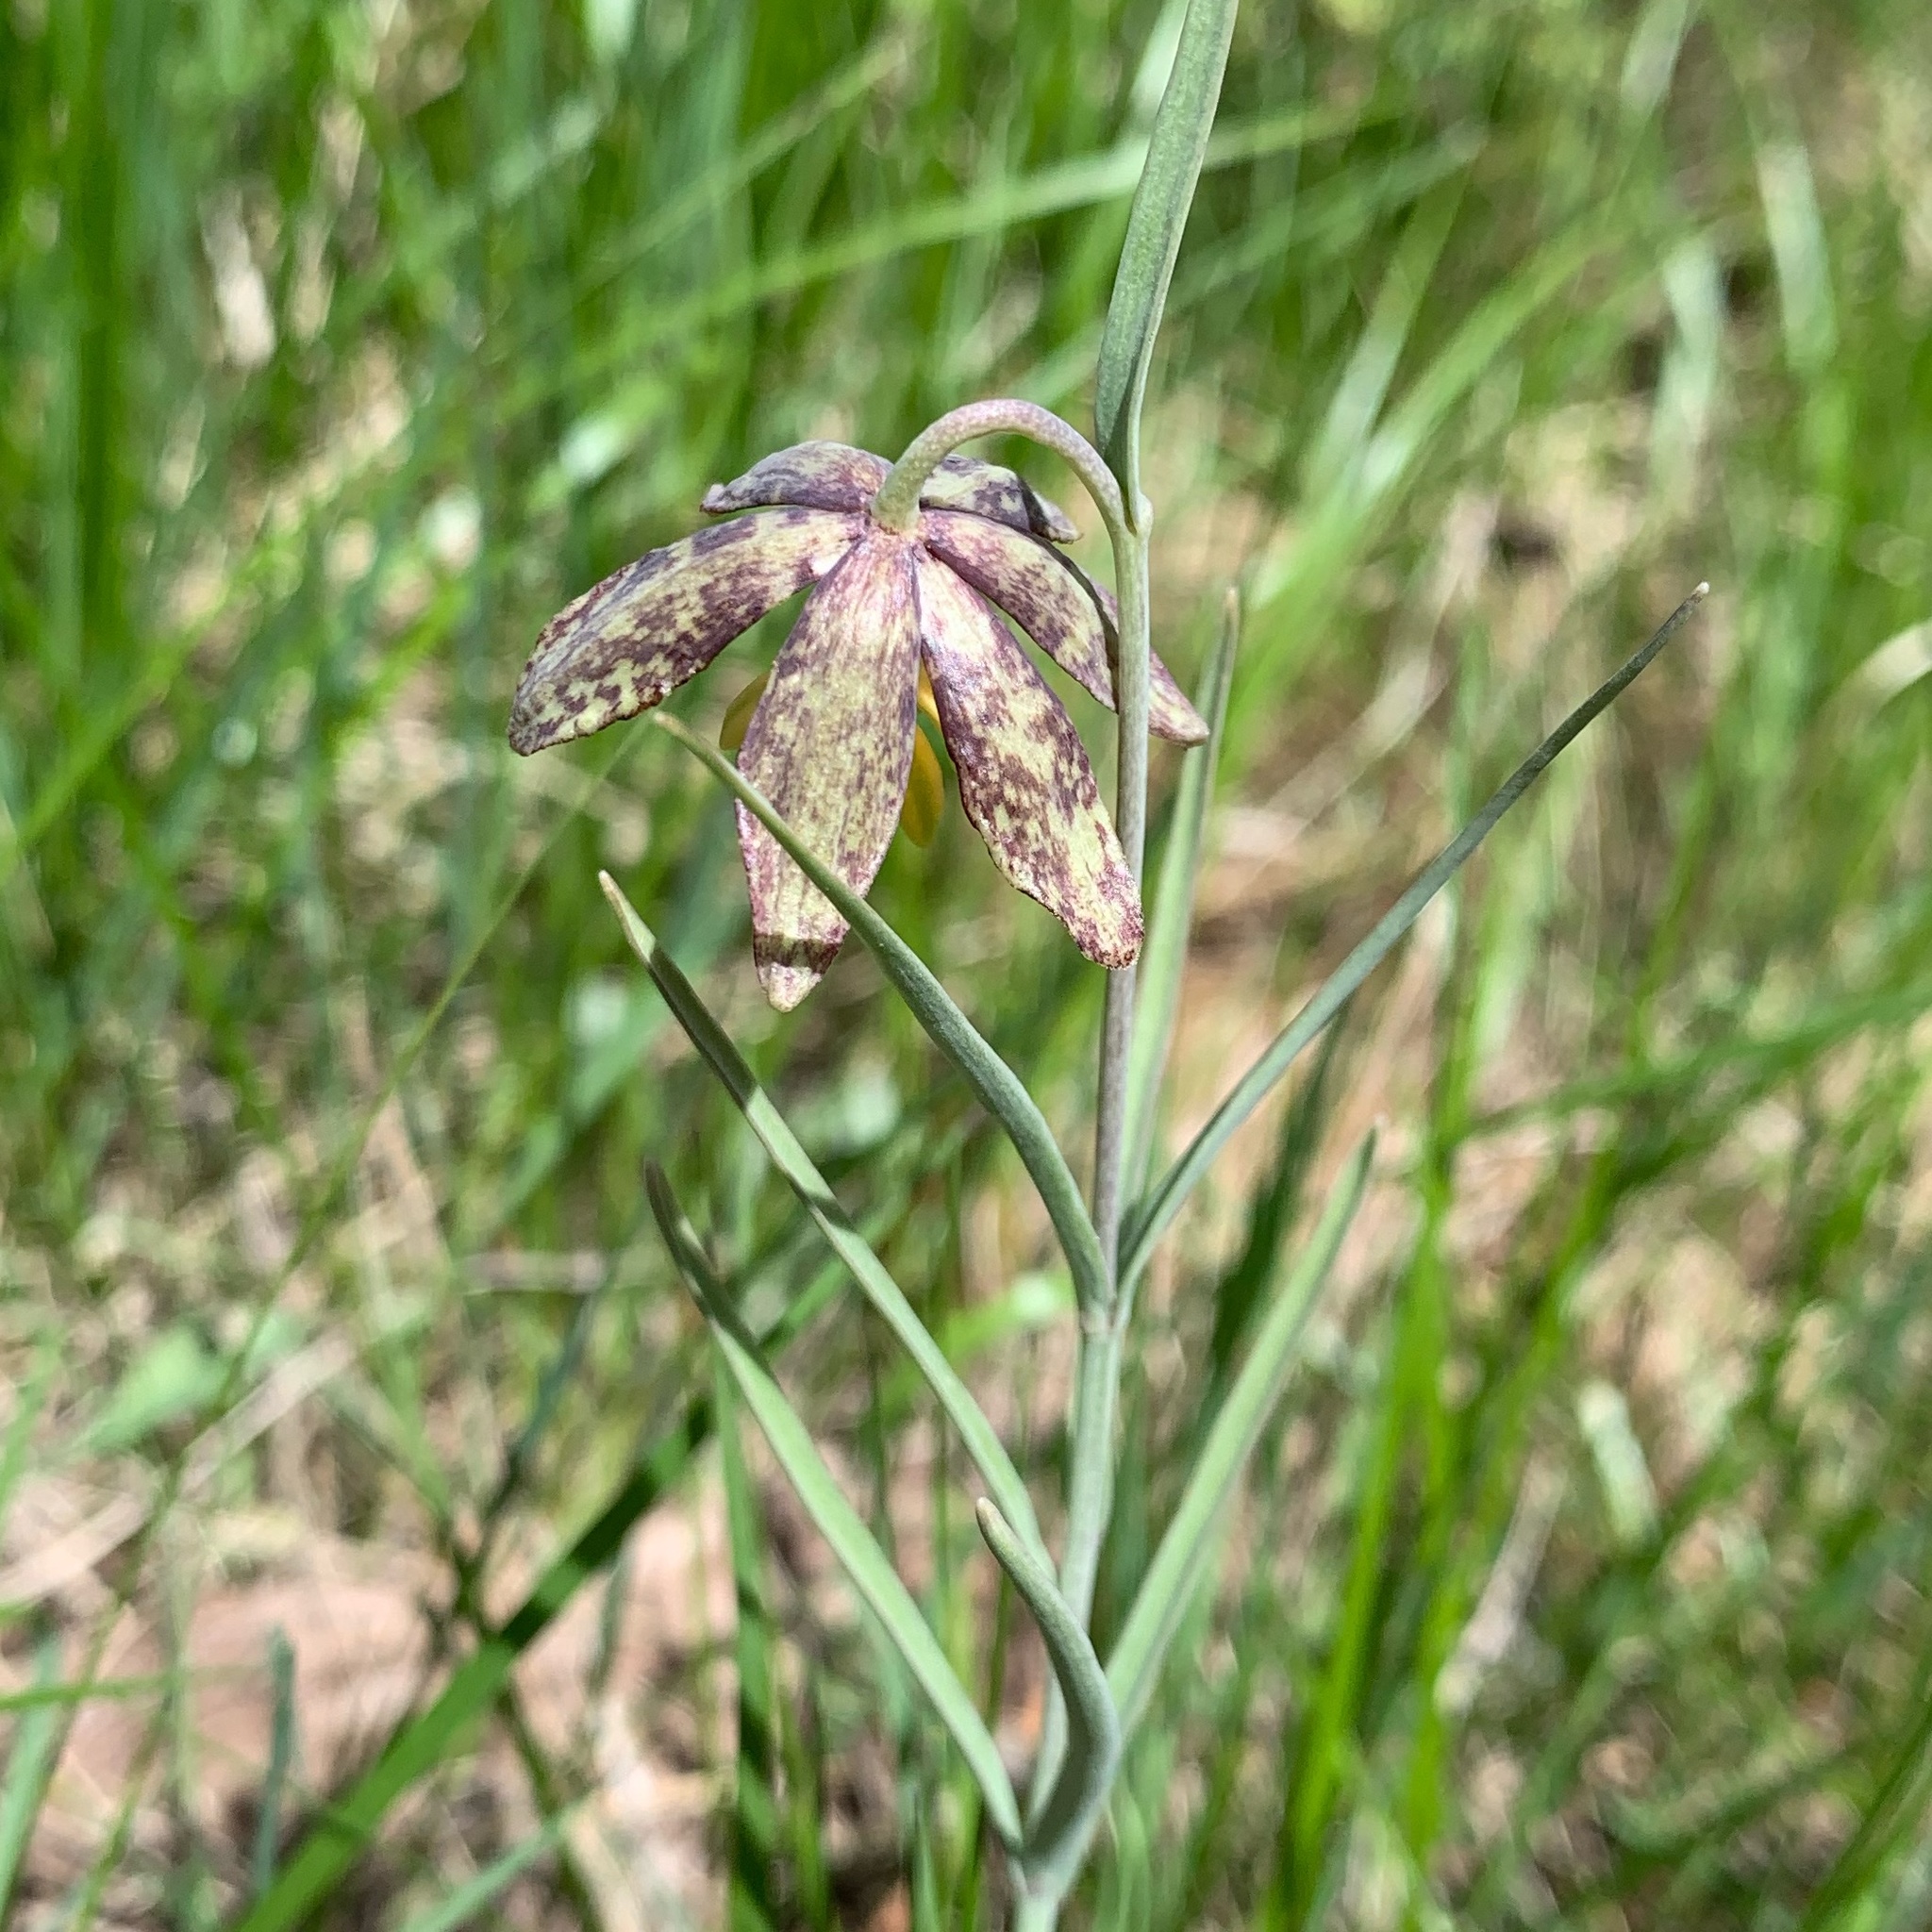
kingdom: Plantae
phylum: Tracheophyta
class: Liliopsida
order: Liliales
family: Liliaceae
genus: Fritillaria
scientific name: Fritillaria atropurpurea
